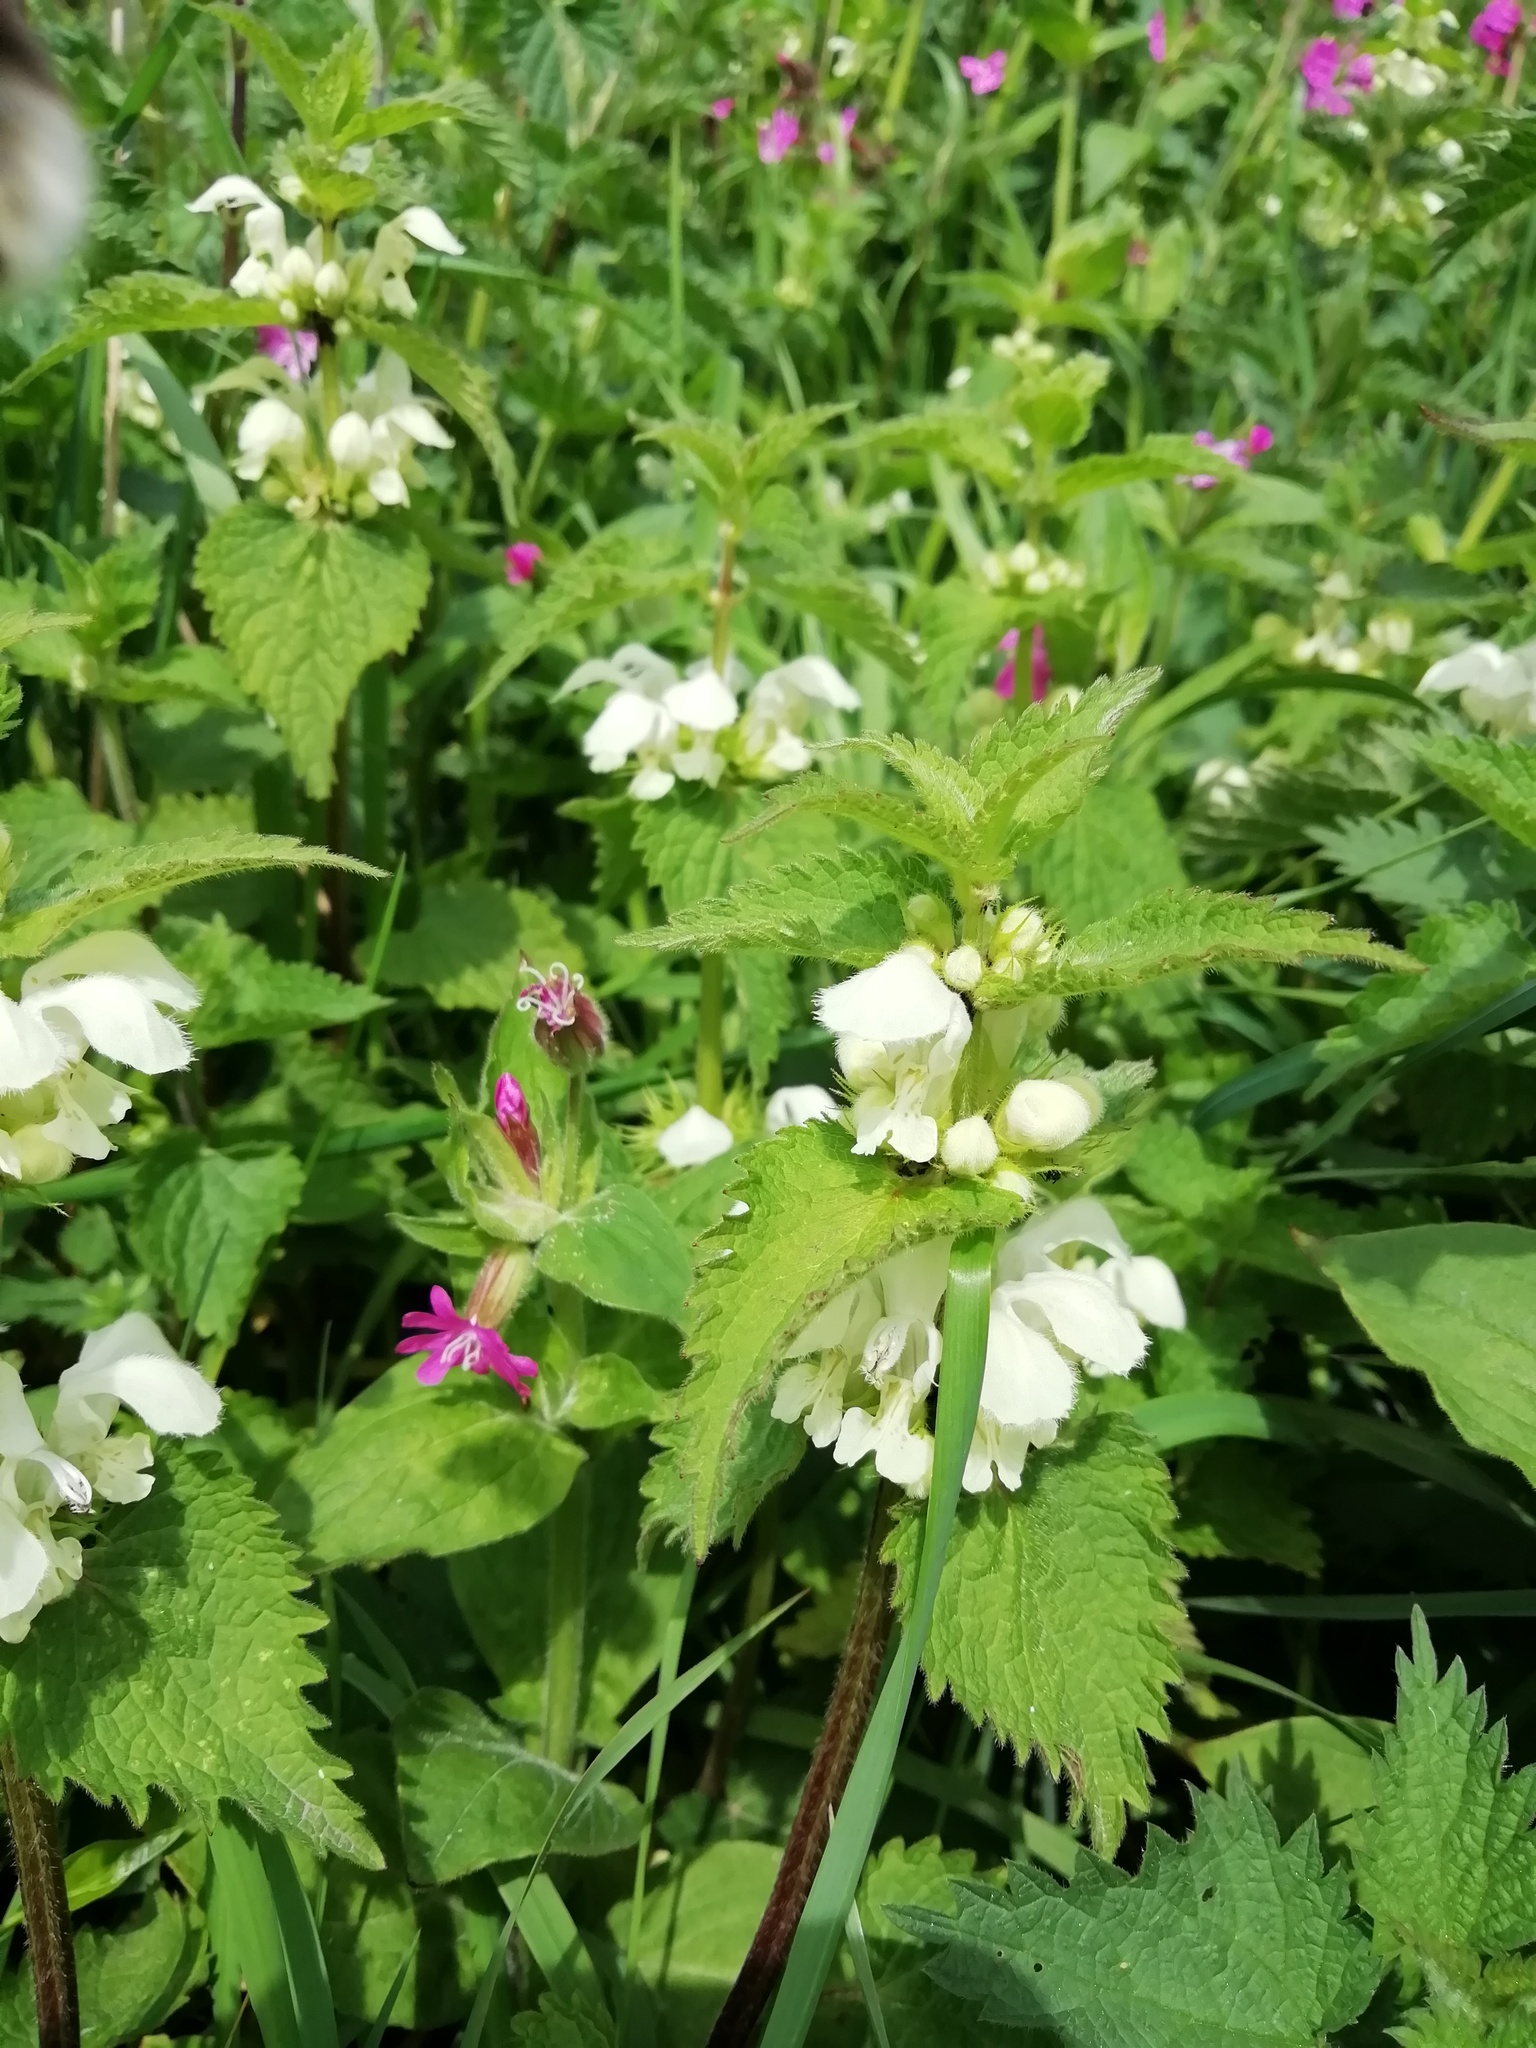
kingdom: Plantae
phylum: Tracheophyta
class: Magnoliopsida
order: Lamiales
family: Lamiaceae
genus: Lamium
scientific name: Lamium album
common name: White dead-nettle
